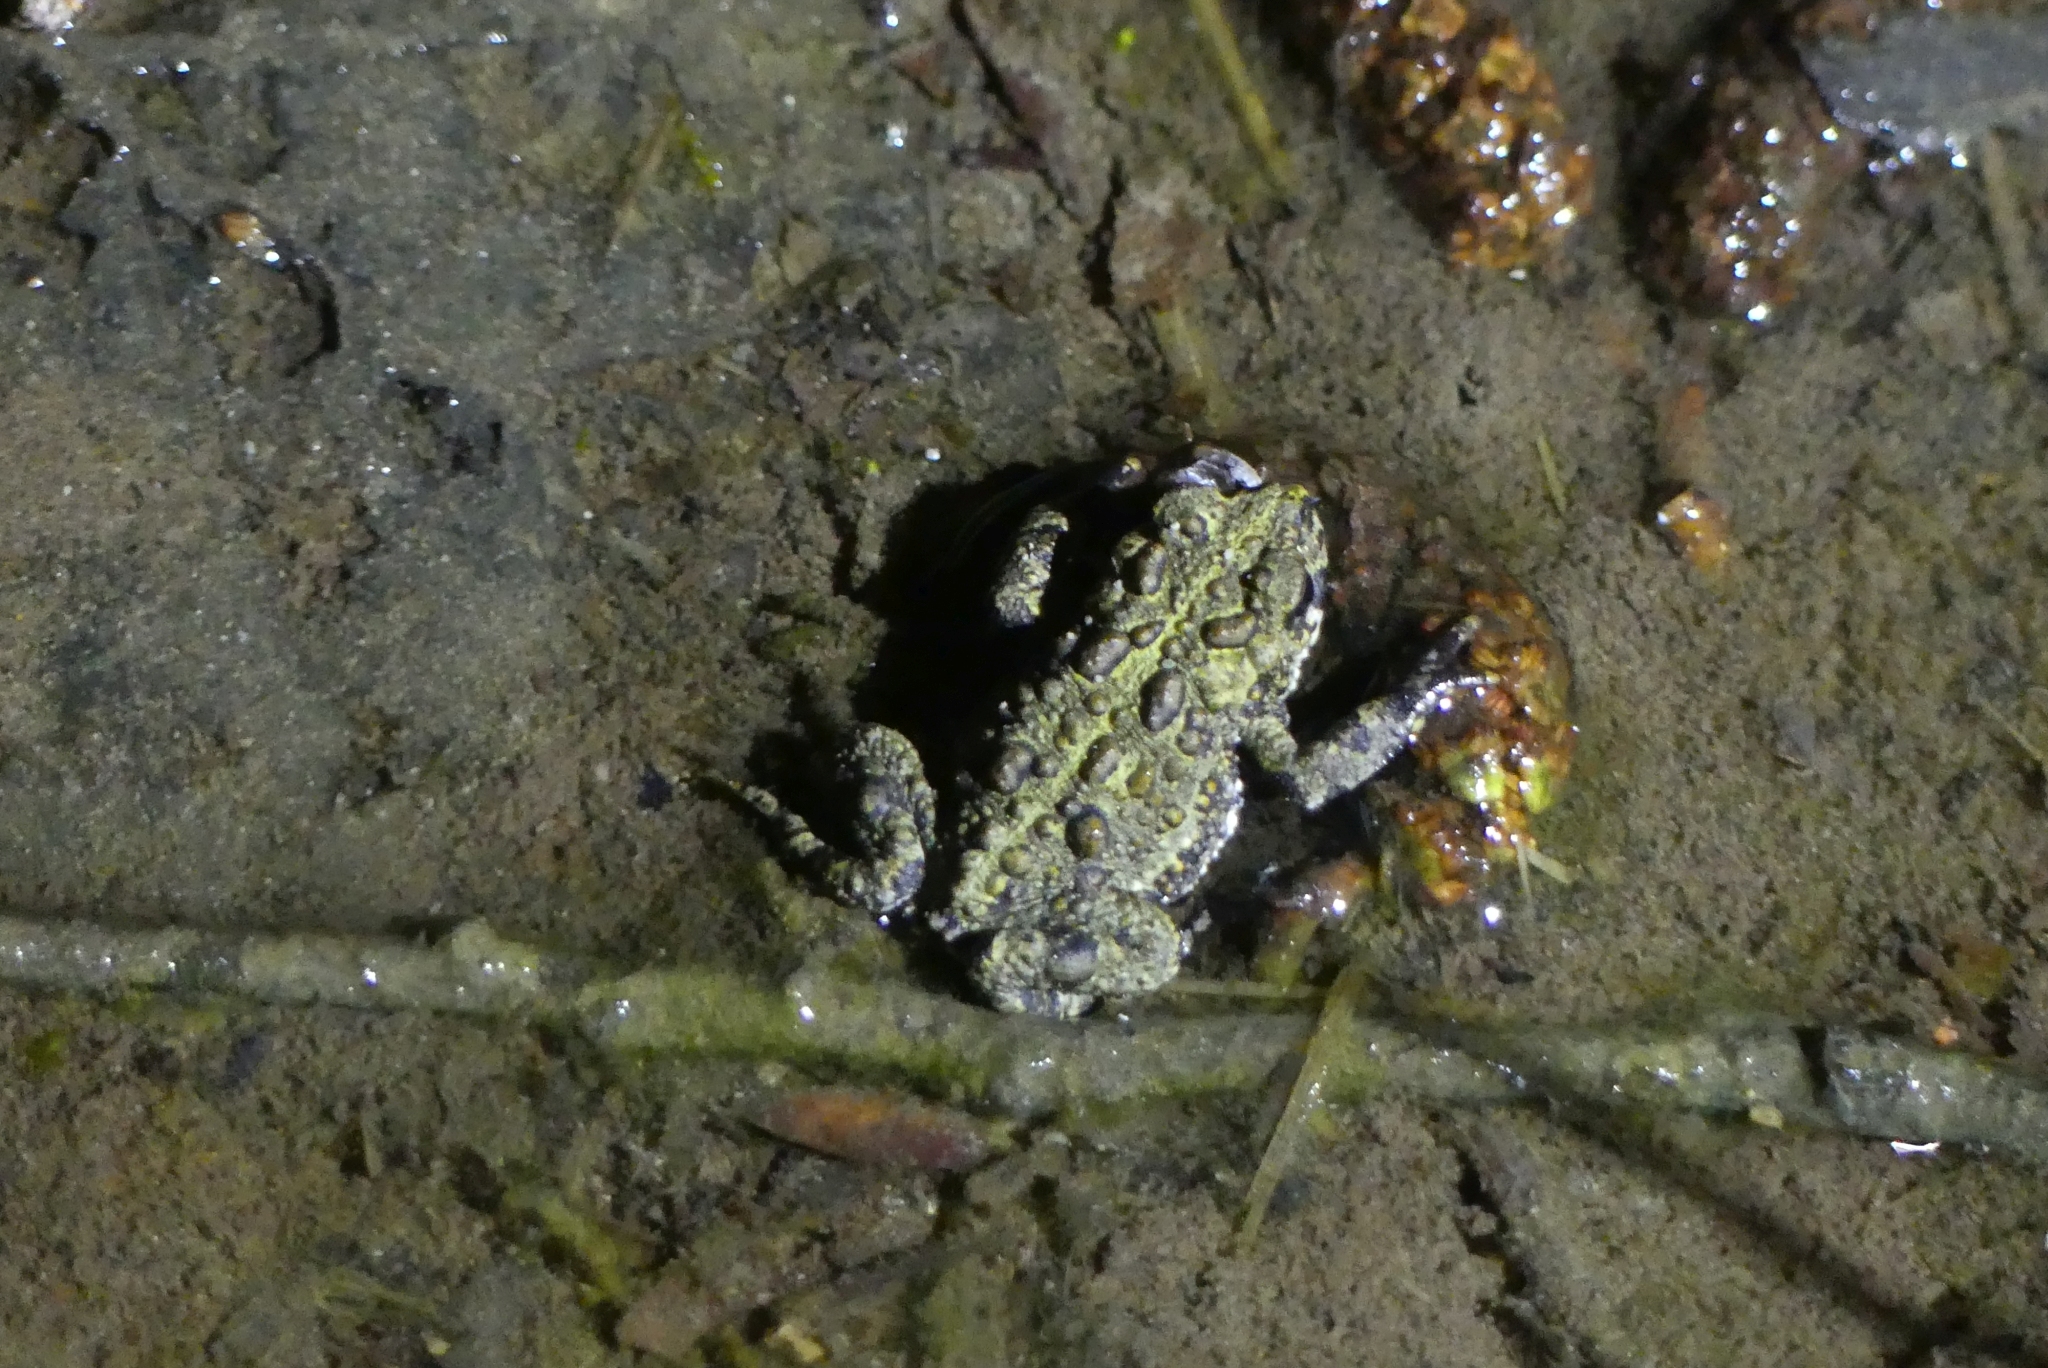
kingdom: Animalia
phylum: Chordata
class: Amphibia
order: Anura
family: Bufonidae
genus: Anaxyrus
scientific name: Anaxyrus boreas
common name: Western toad
